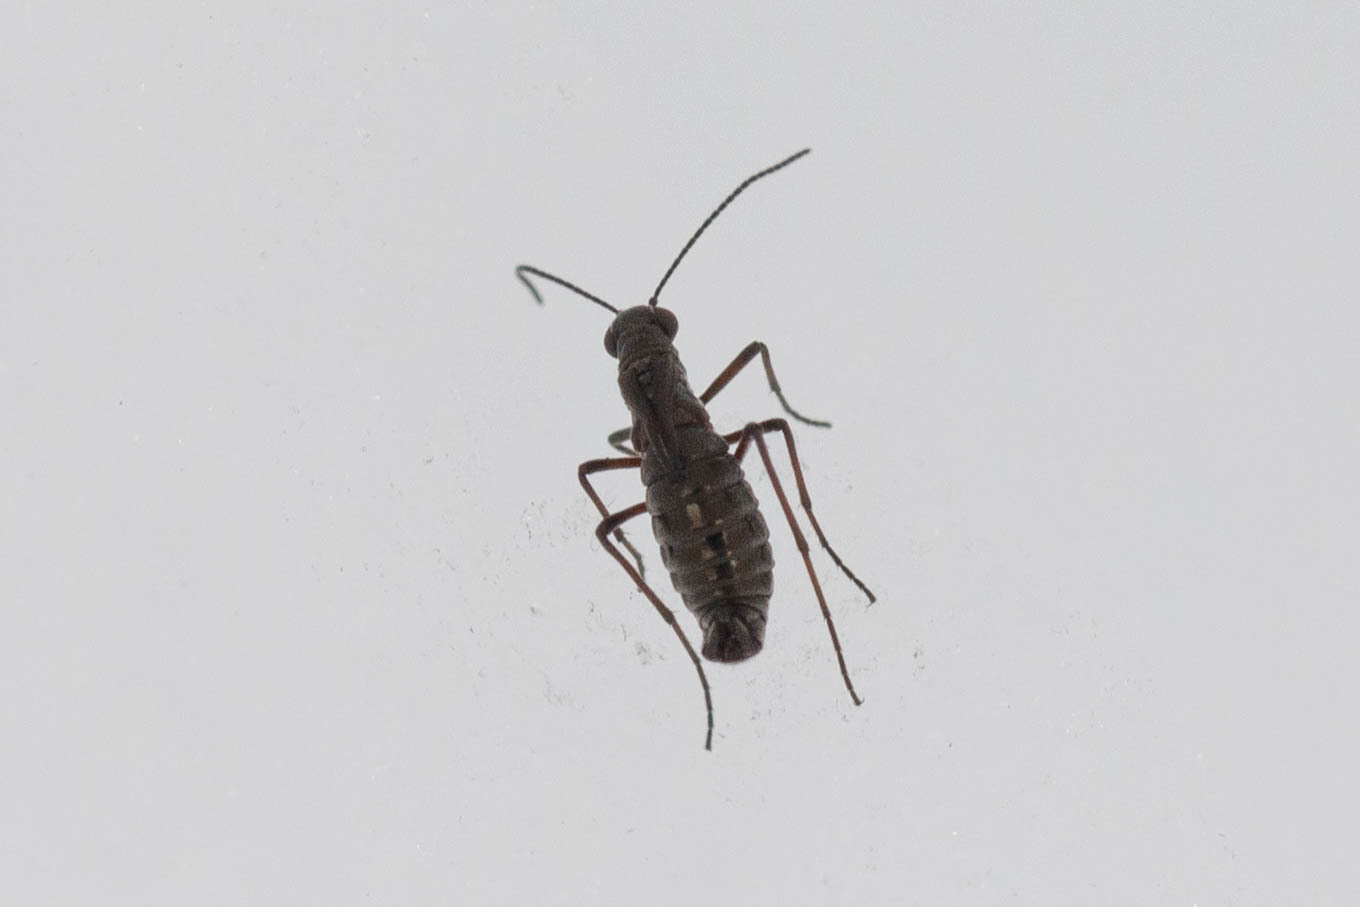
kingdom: Animalia
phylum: Arthropoda
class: Insecta
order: Mecoptera
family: Boreidae
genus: Boreus
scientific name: Boreus californicus
